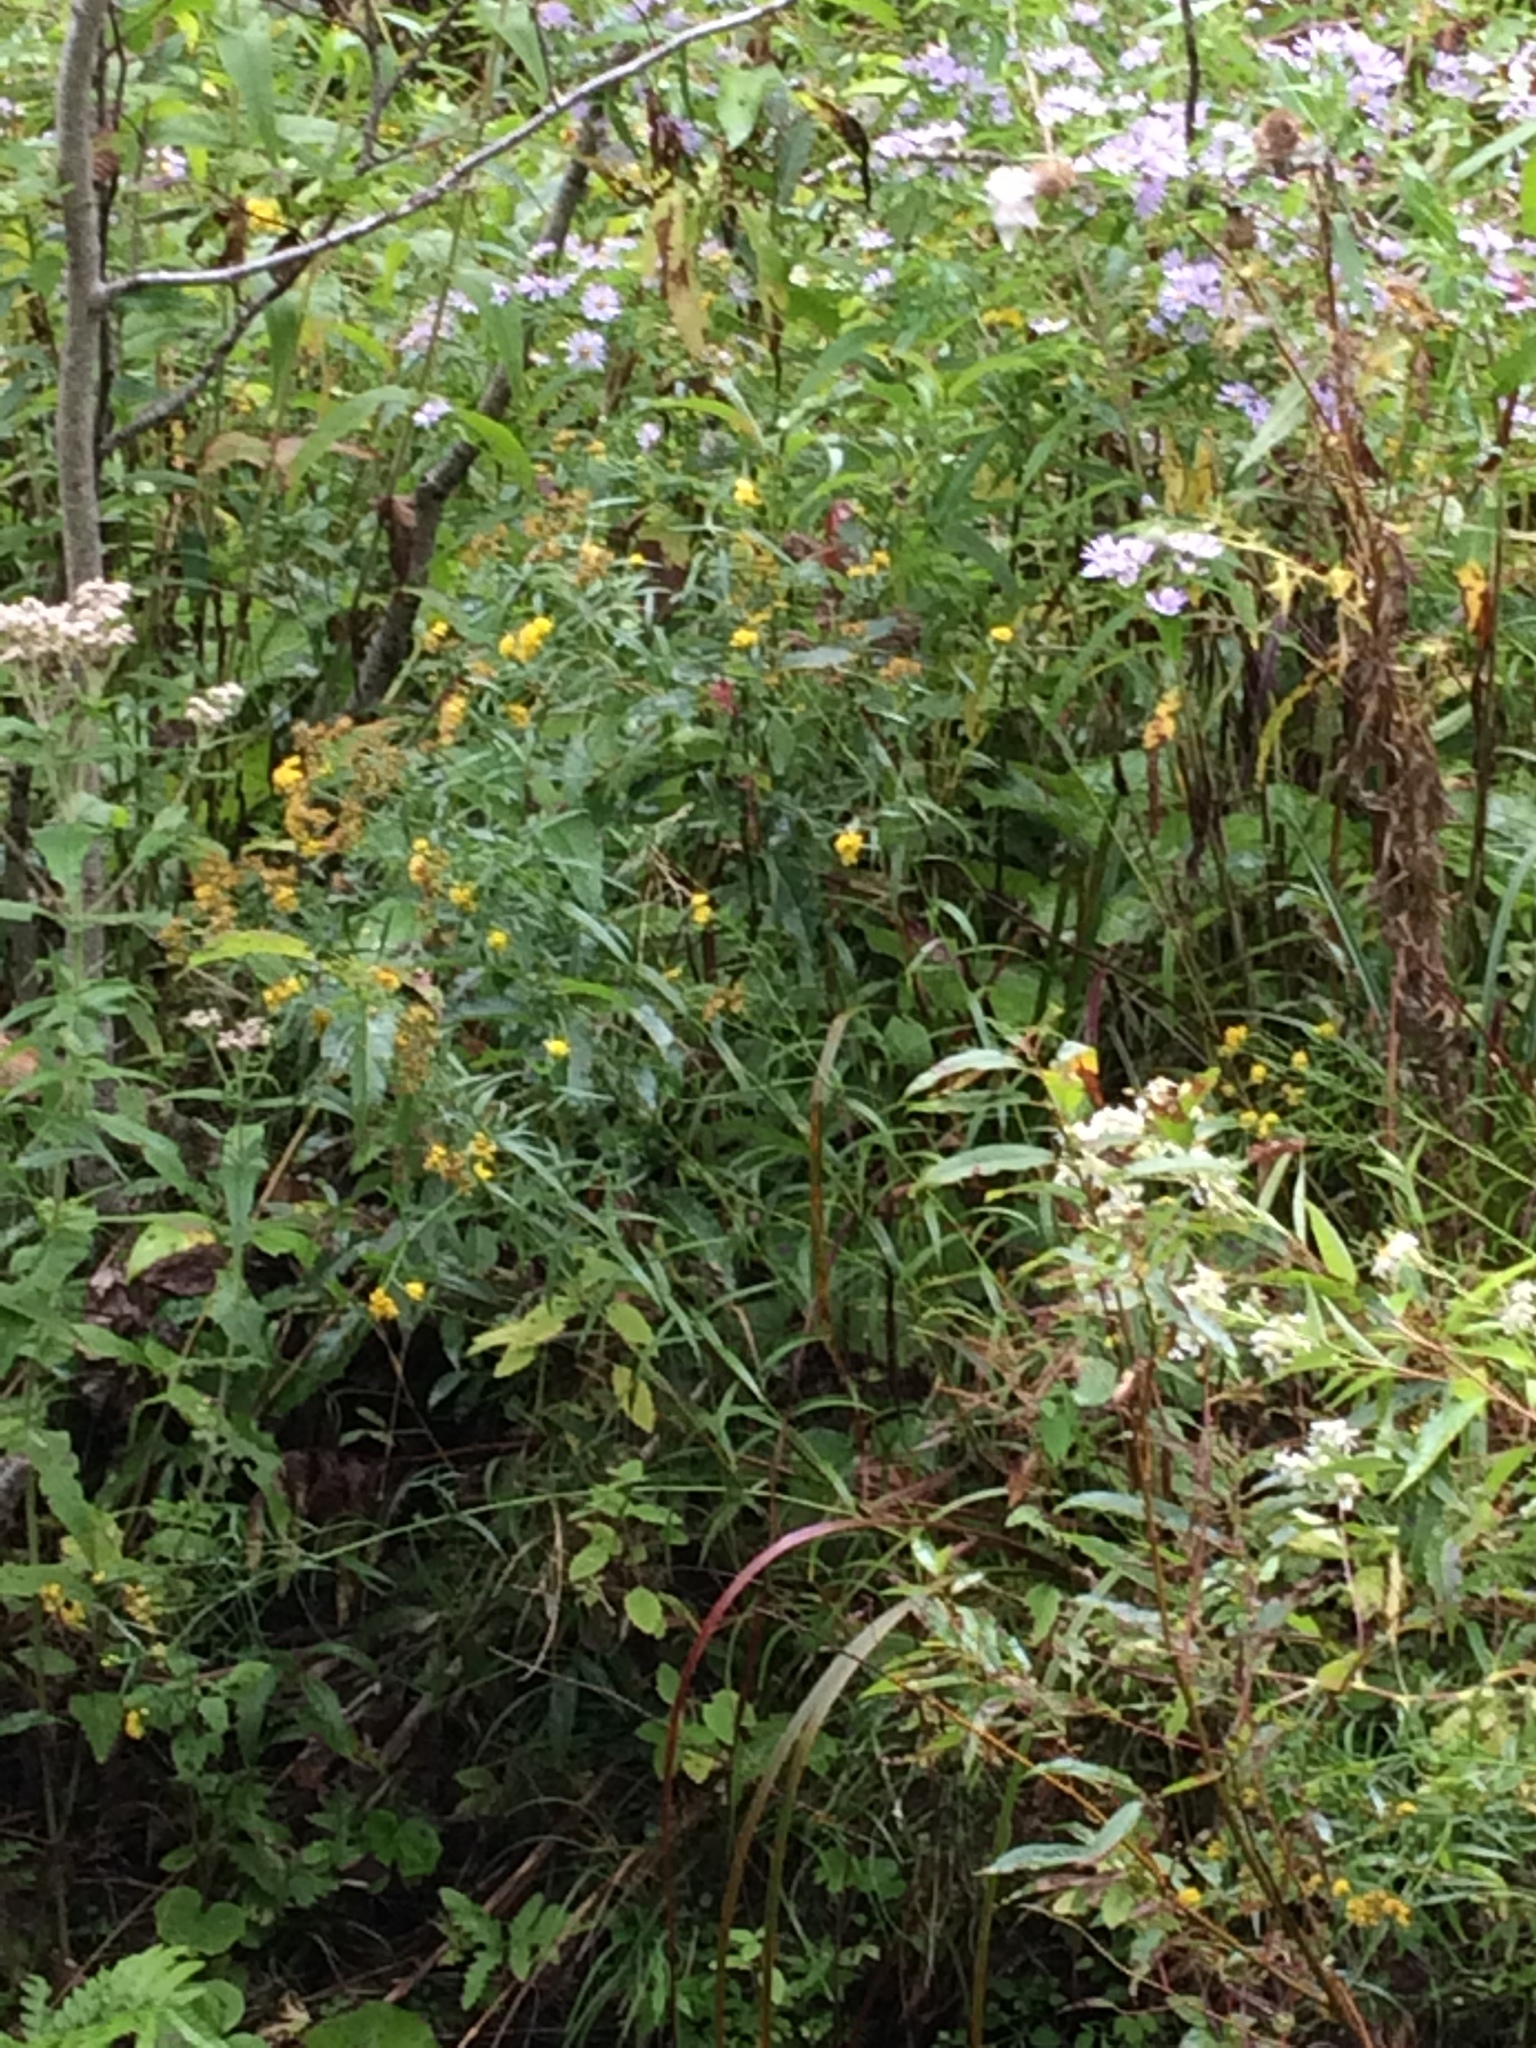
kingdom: Plantae
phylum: Tracheophyta
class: Magnoliopsida
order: Asterales
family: Asteraceae
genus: Euthamia
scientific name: Euthamia graminifolia
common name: Common goldentop
